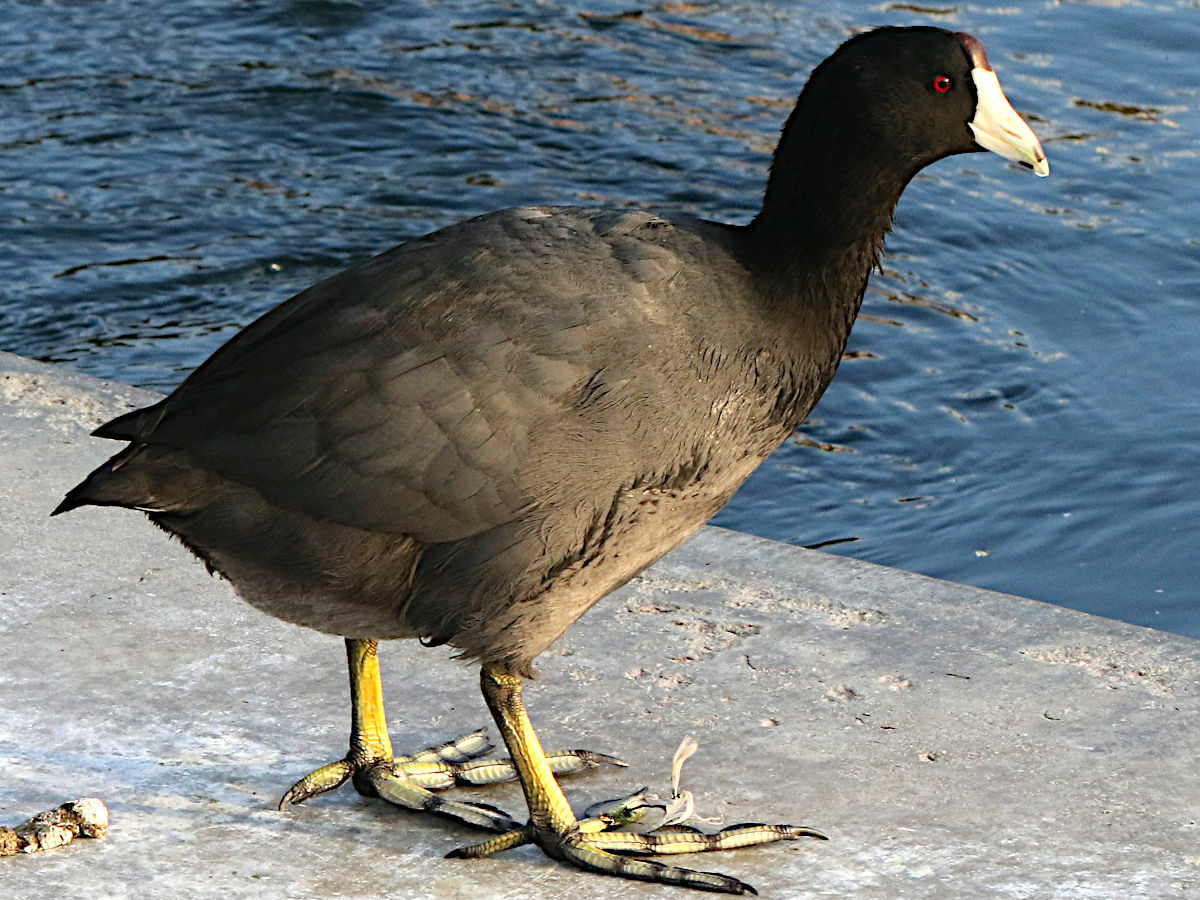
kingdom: Animalia
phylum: Chordata
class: Aves
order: Gruiformes
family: Rallidae
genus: Fulica
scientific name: Fulica americana
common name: American coot
